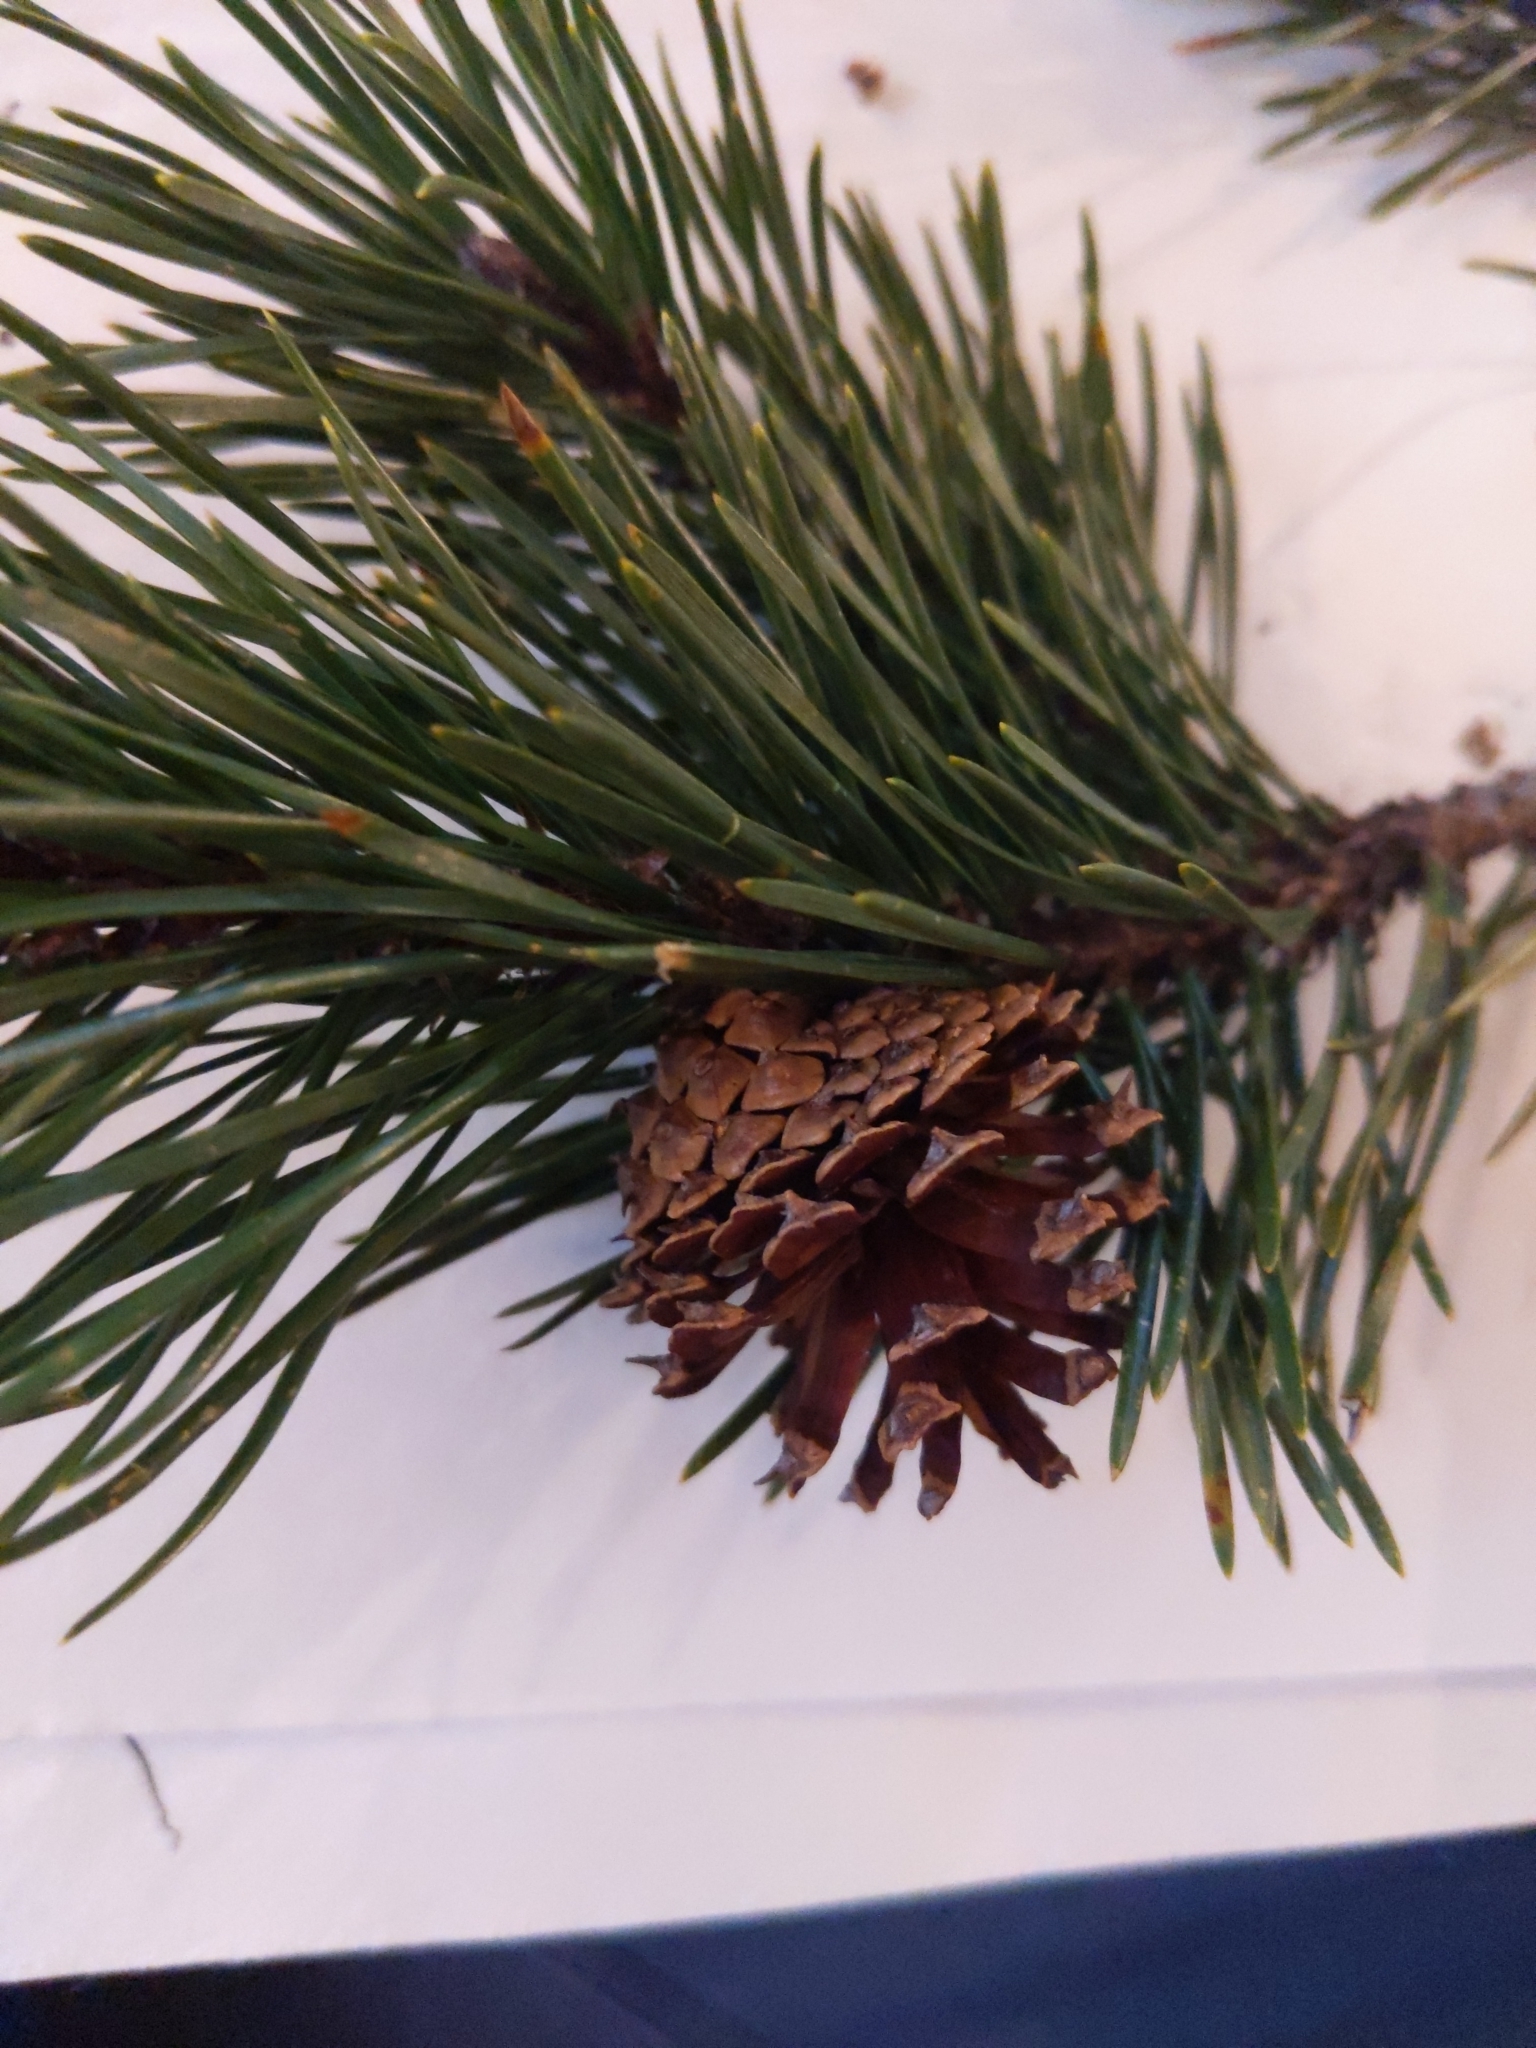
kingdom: Plantae
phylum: Tracheophyta
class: Pinopsida
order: Pinales
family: Pinaceae
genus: Pinus
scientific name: Pinus contorta
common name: Lodgepole pine
